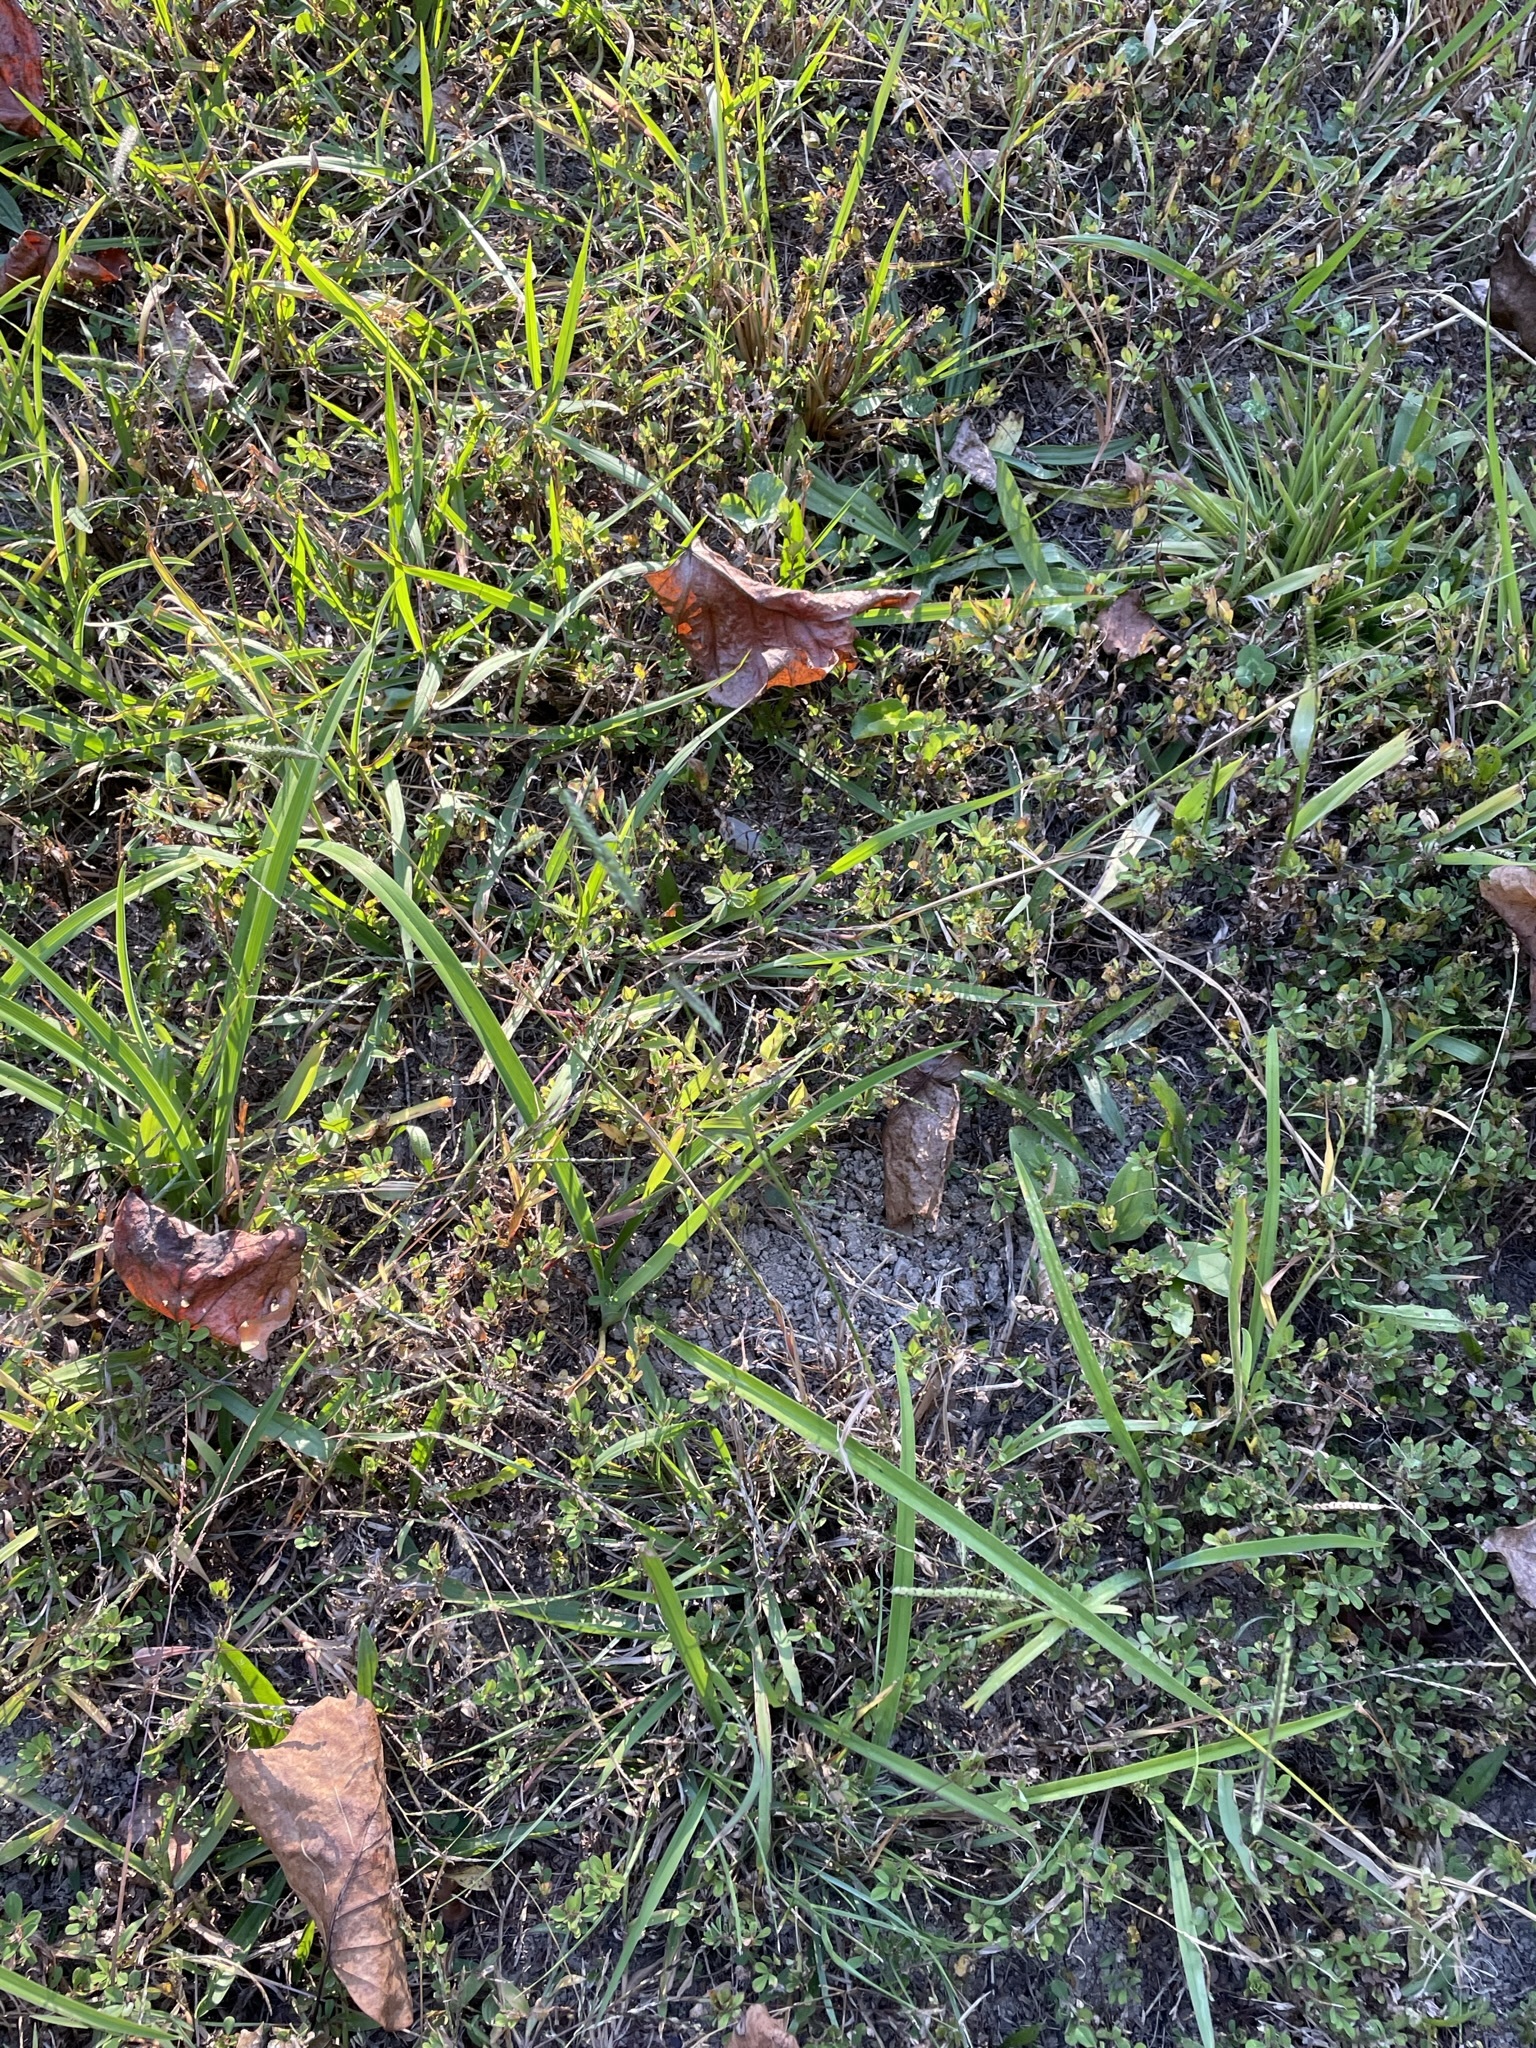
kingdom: Plantae
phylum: Tracheophyta
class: Liliopsida
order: Poales
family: Poaceae
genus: Paspalum
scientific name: Paspalum dilatatum
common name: Dallisgrass
